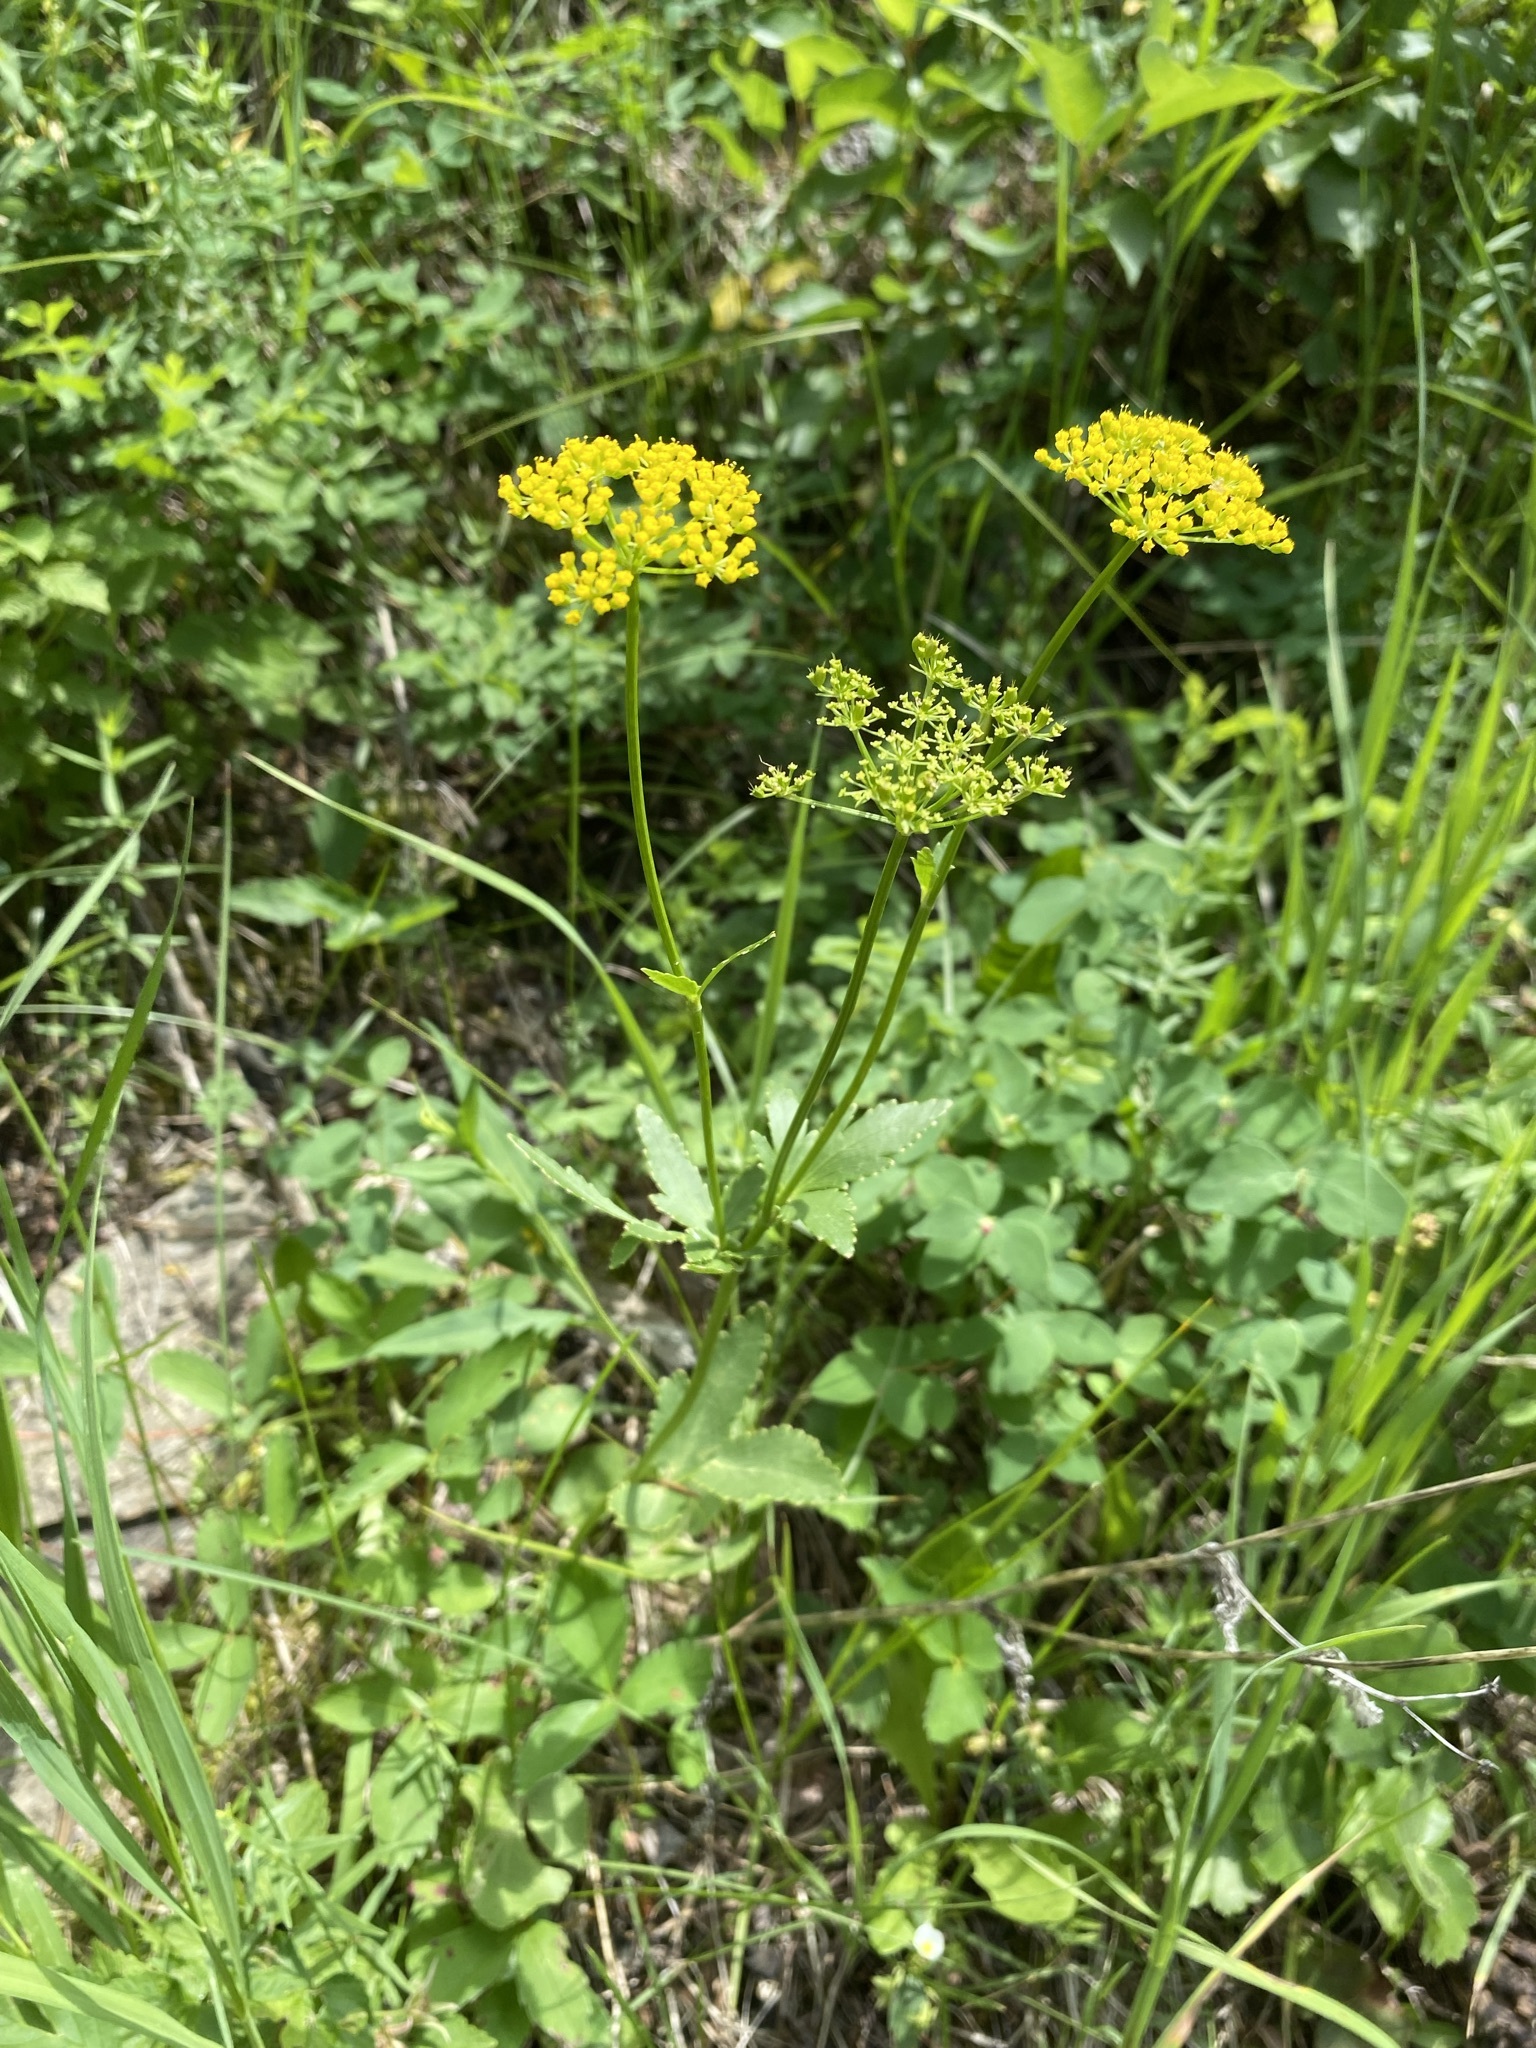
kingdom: Plantae
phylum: Tracheophyta
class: Magnoliopsida
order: Apiales
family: Apiaceae
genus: Zizia
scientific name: Zizia aptera
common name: Heart-leaved alexanders
